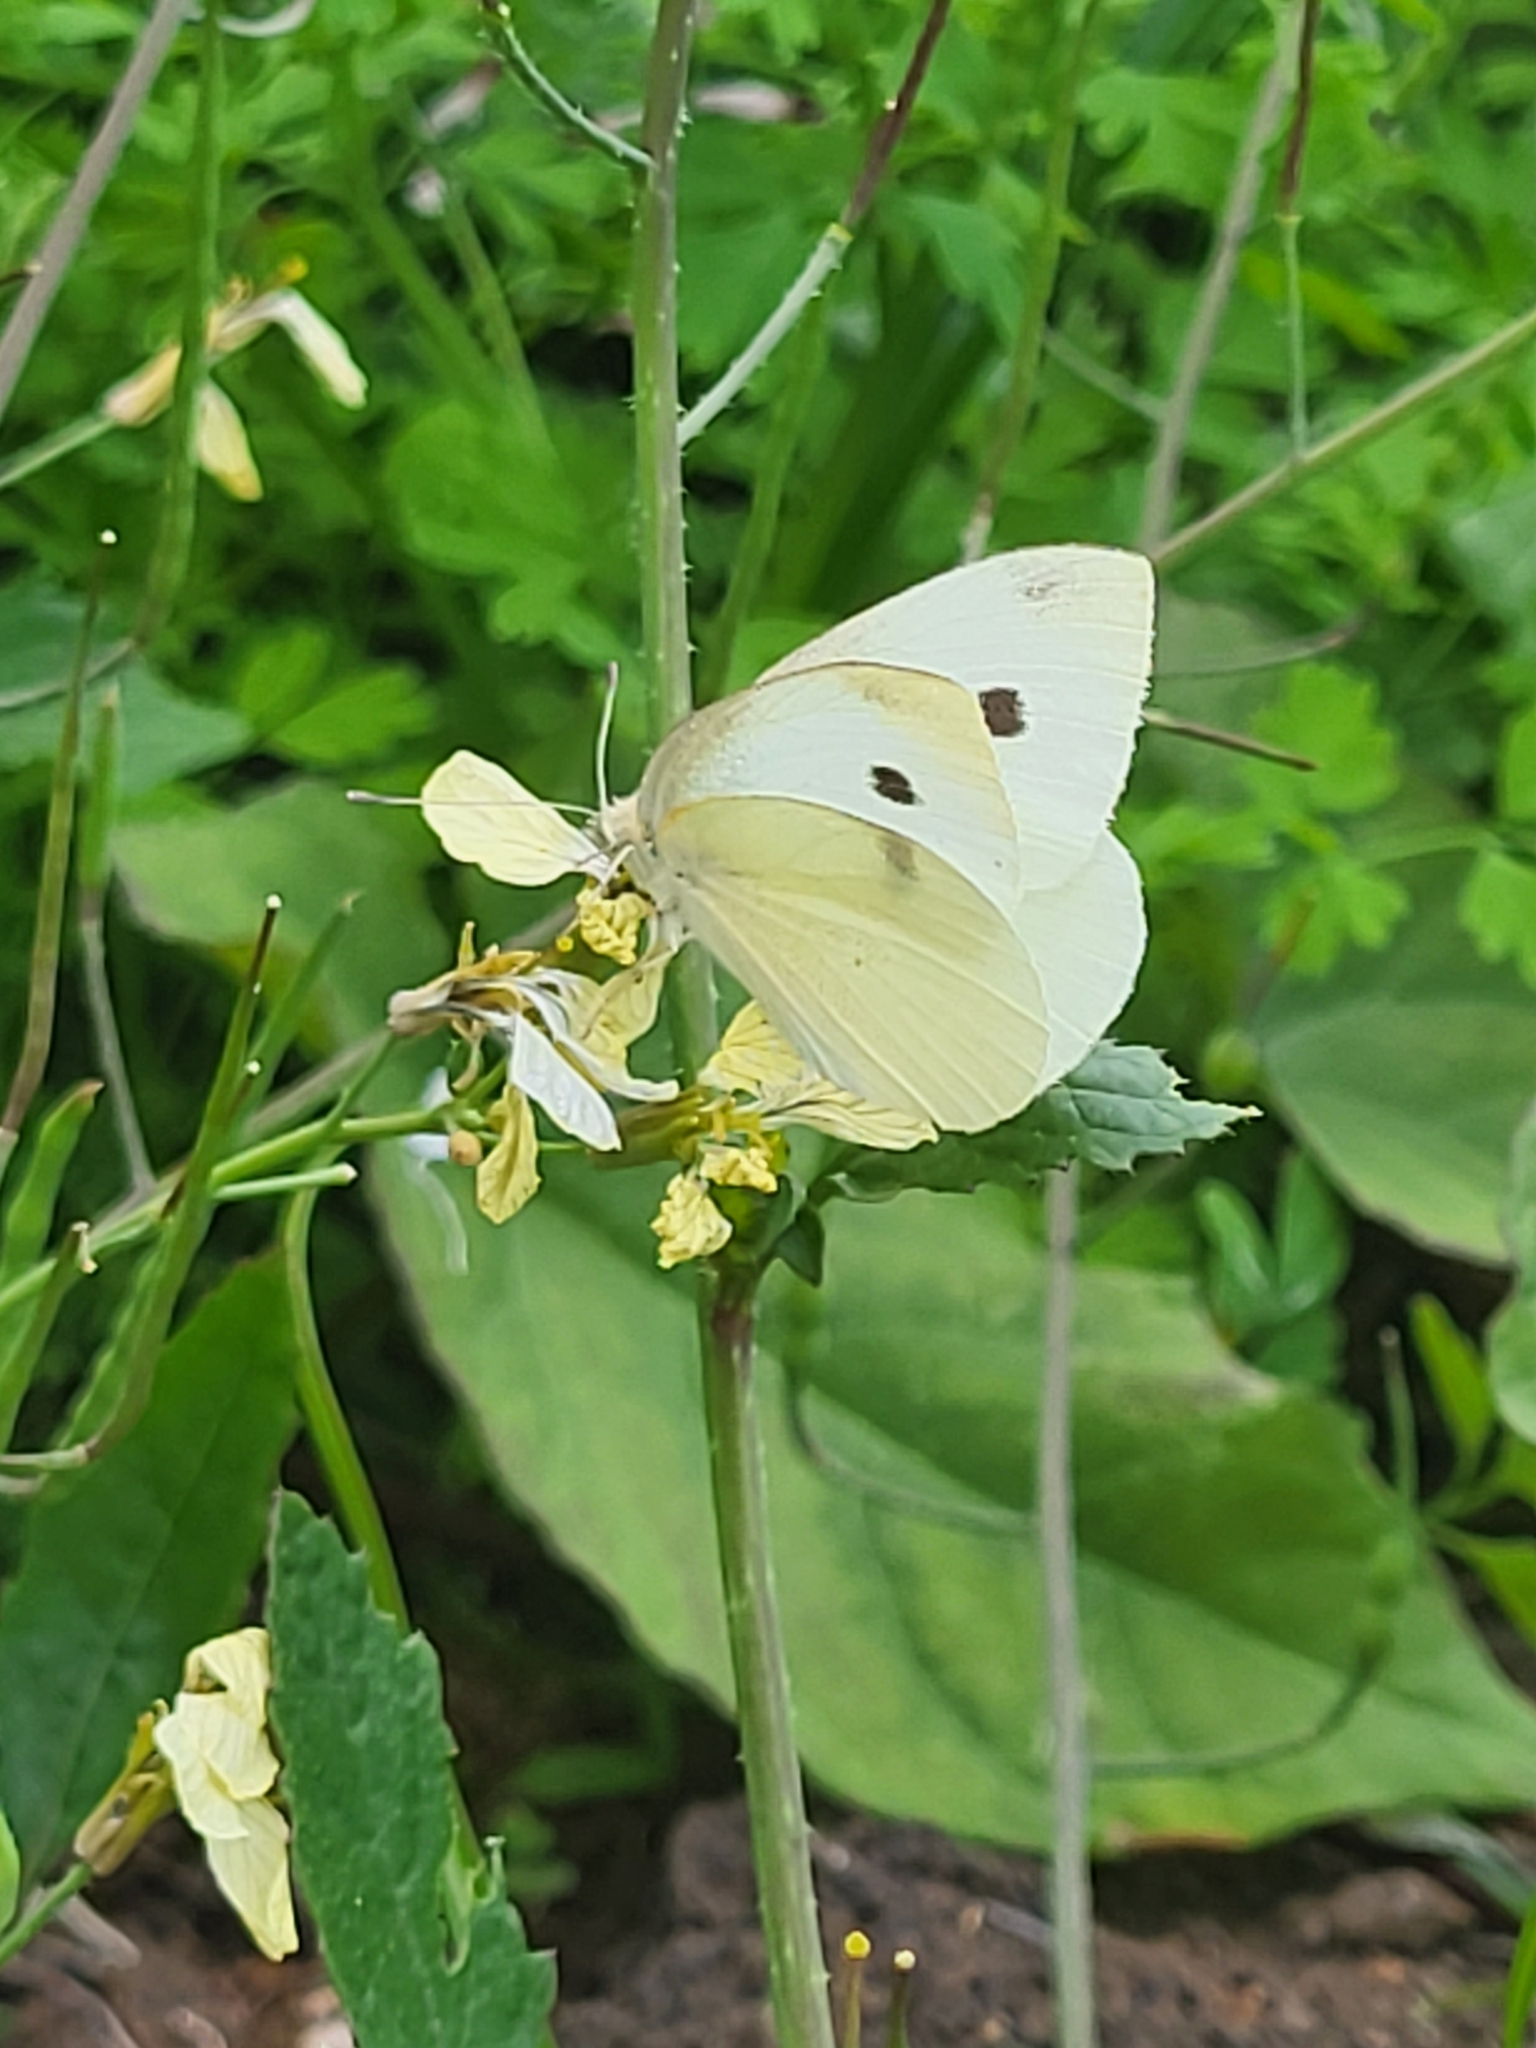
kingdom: Animalia
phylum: Arthropoda
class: Insecta
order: Lepidoptera
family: Pieridae
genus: Pieris
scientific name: Pieris rapae
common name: Small white
